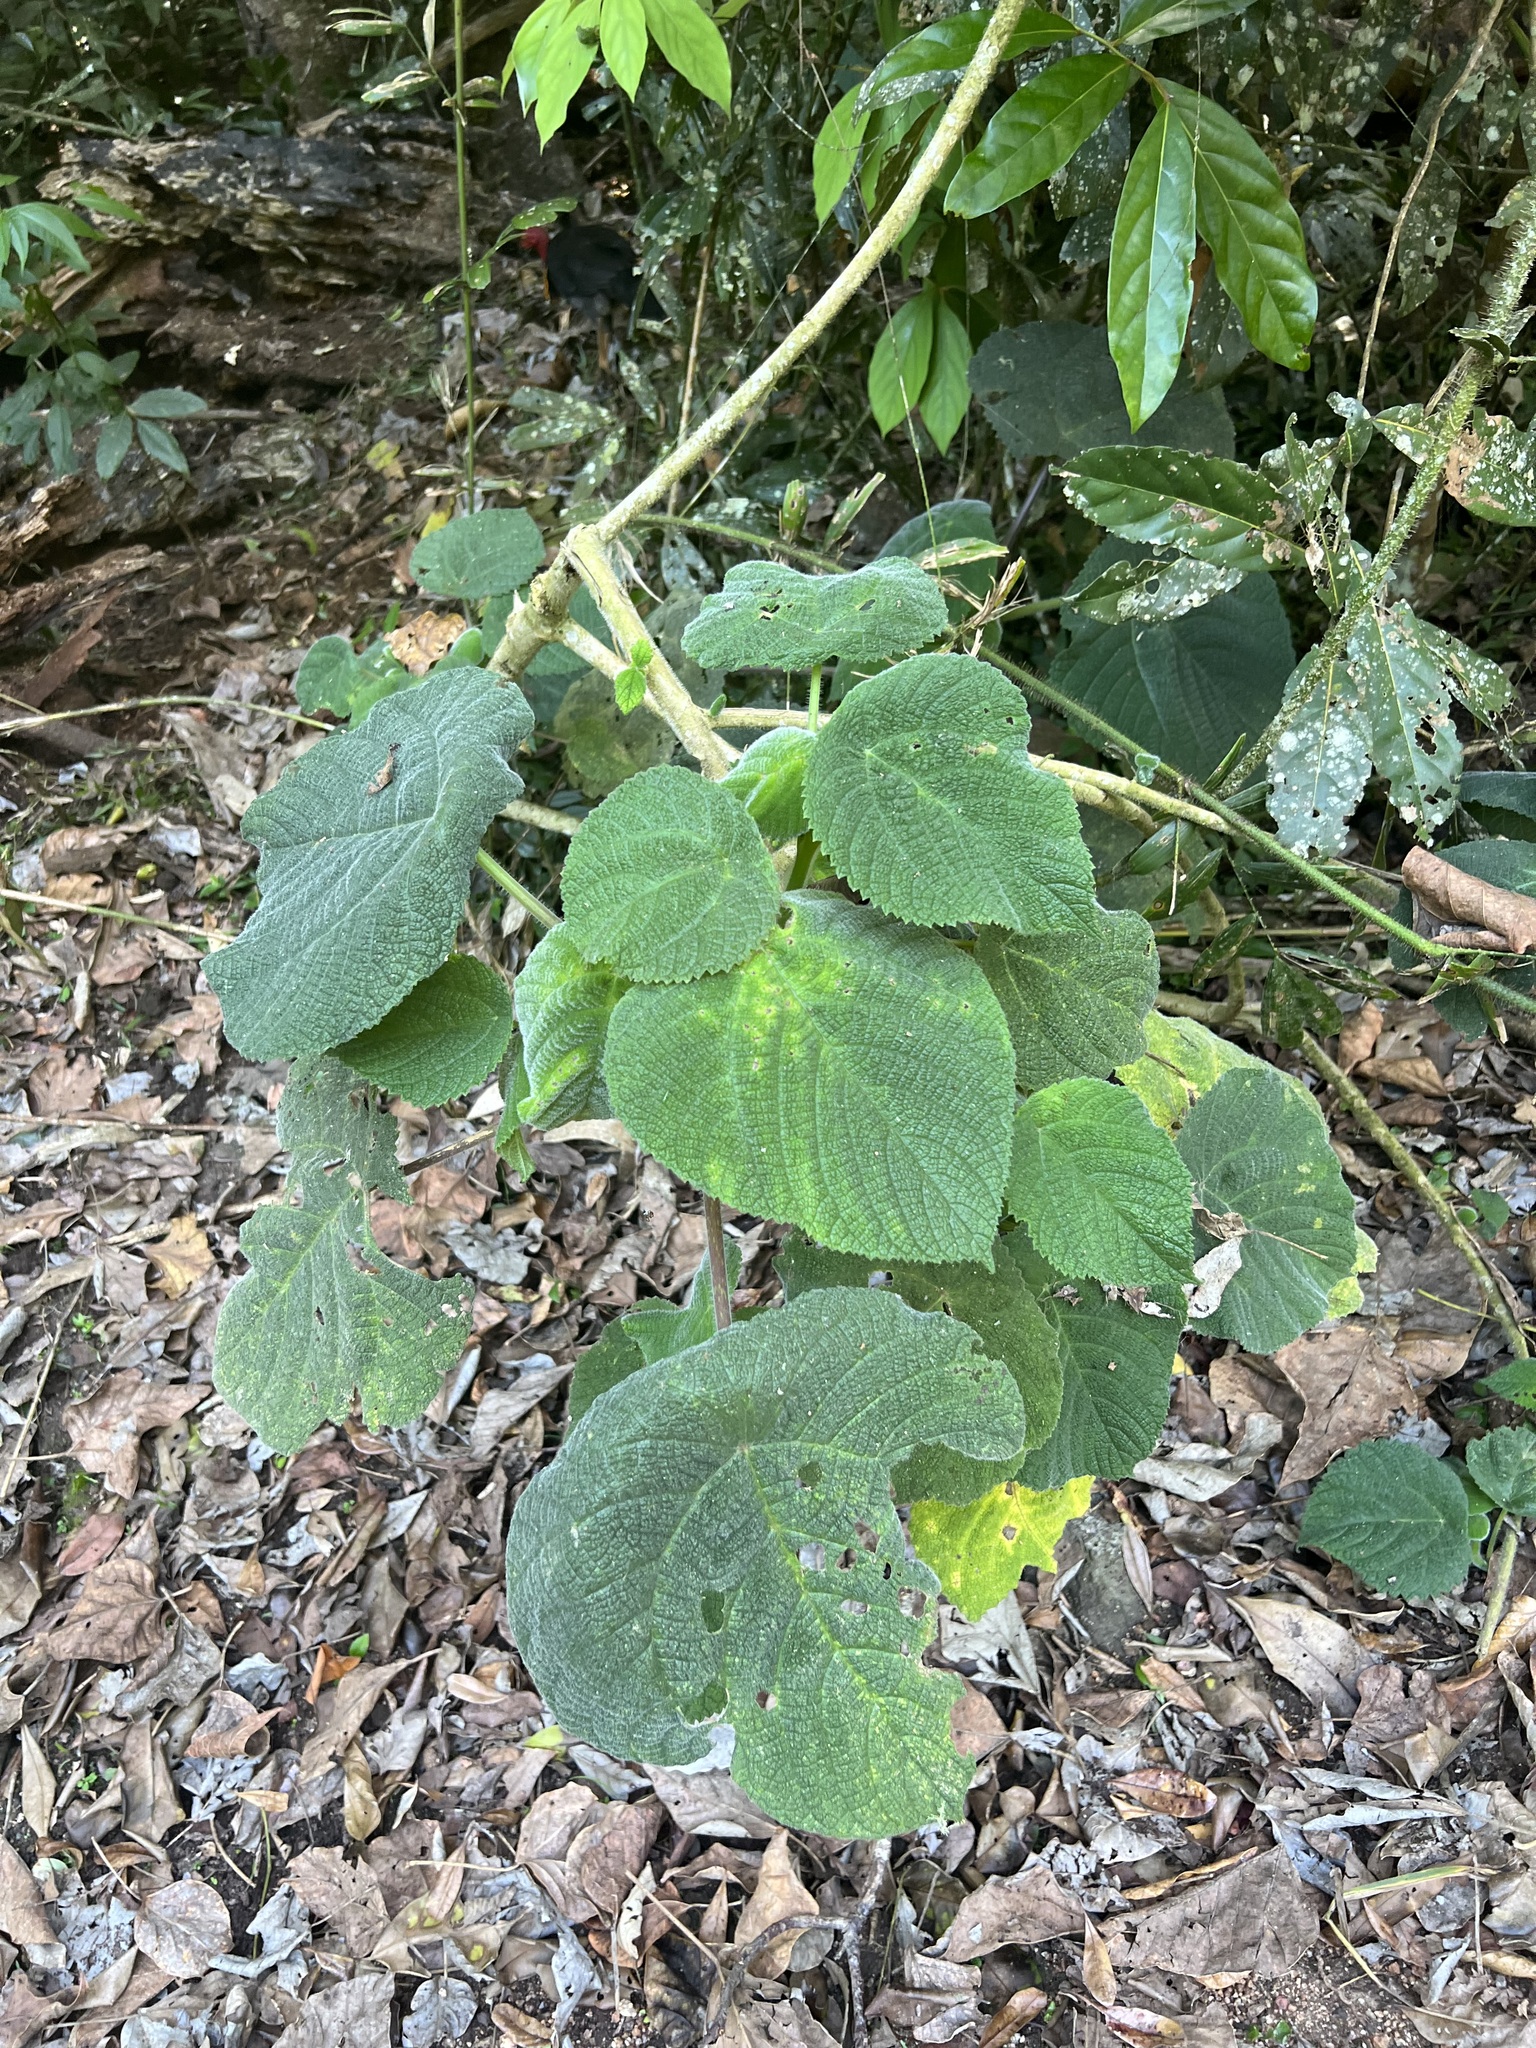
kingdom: Plantae
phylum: Tracheophyta
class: Magnoliopsida
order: Rosales
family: Urticaceae
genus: Dendrocnide
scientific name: Dendrocnide moroides
